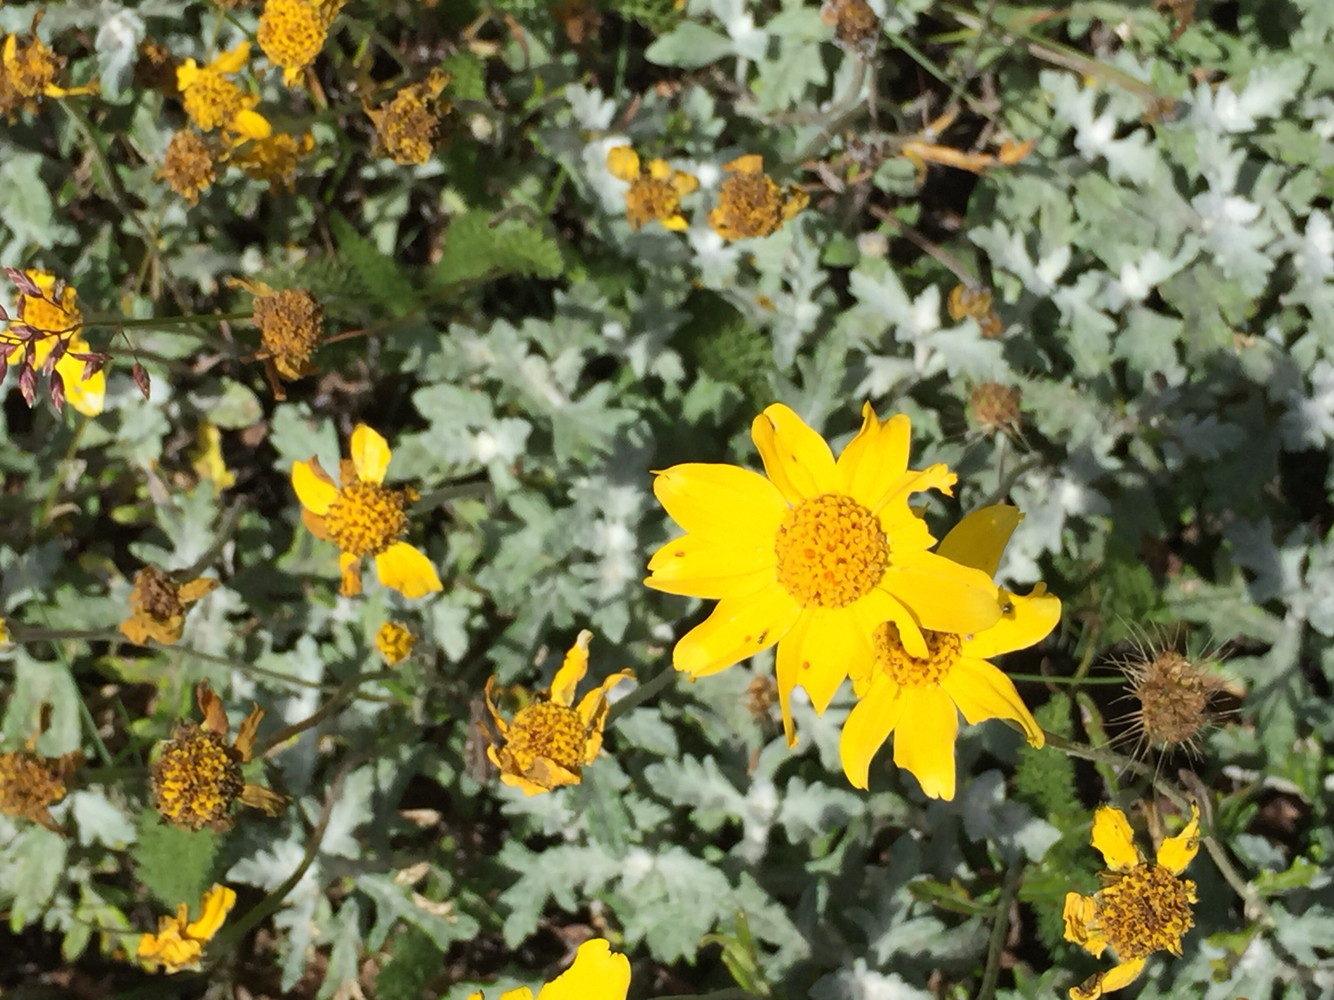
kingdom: Plantae
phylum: Tracheophyta
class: Magnoliopsida
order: Asterales
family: Asteraceae
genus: Eriophyllum
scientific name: Eriophyllum lanatum
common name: Common woolly-sunflower
